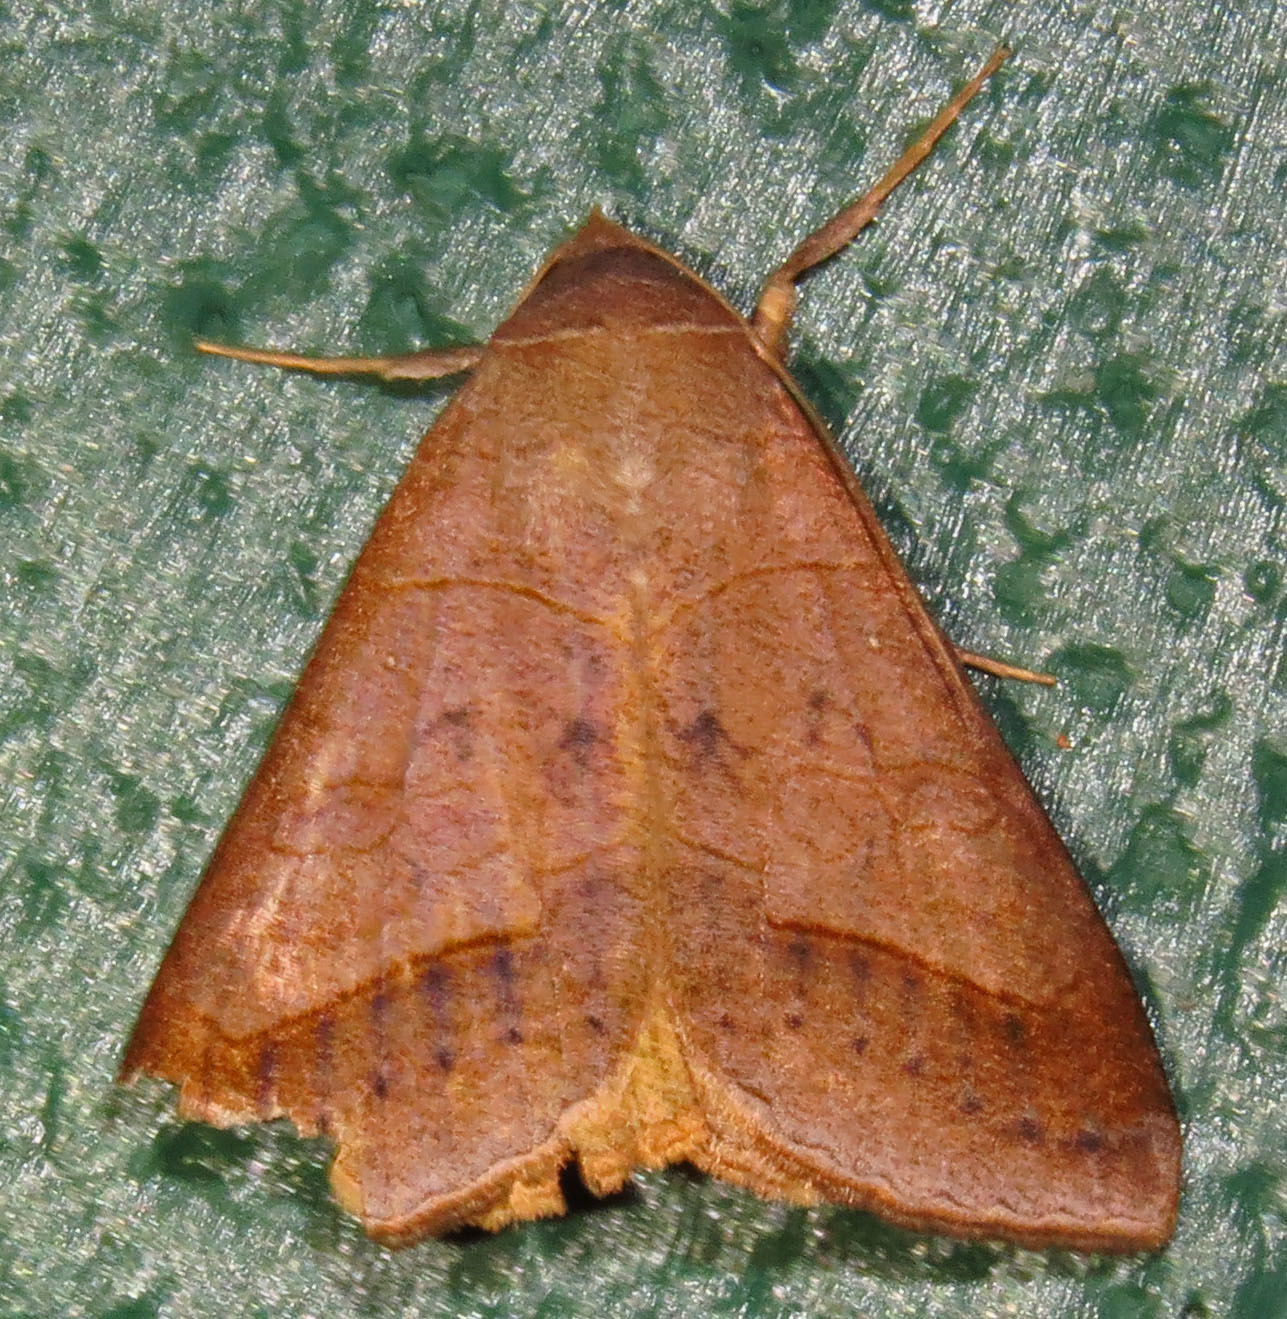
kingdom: Animalia
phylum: Arthropoda
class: Insecta
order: Lepidoptera
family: Erebidae
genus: Mocis
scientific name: Mocis marcida
